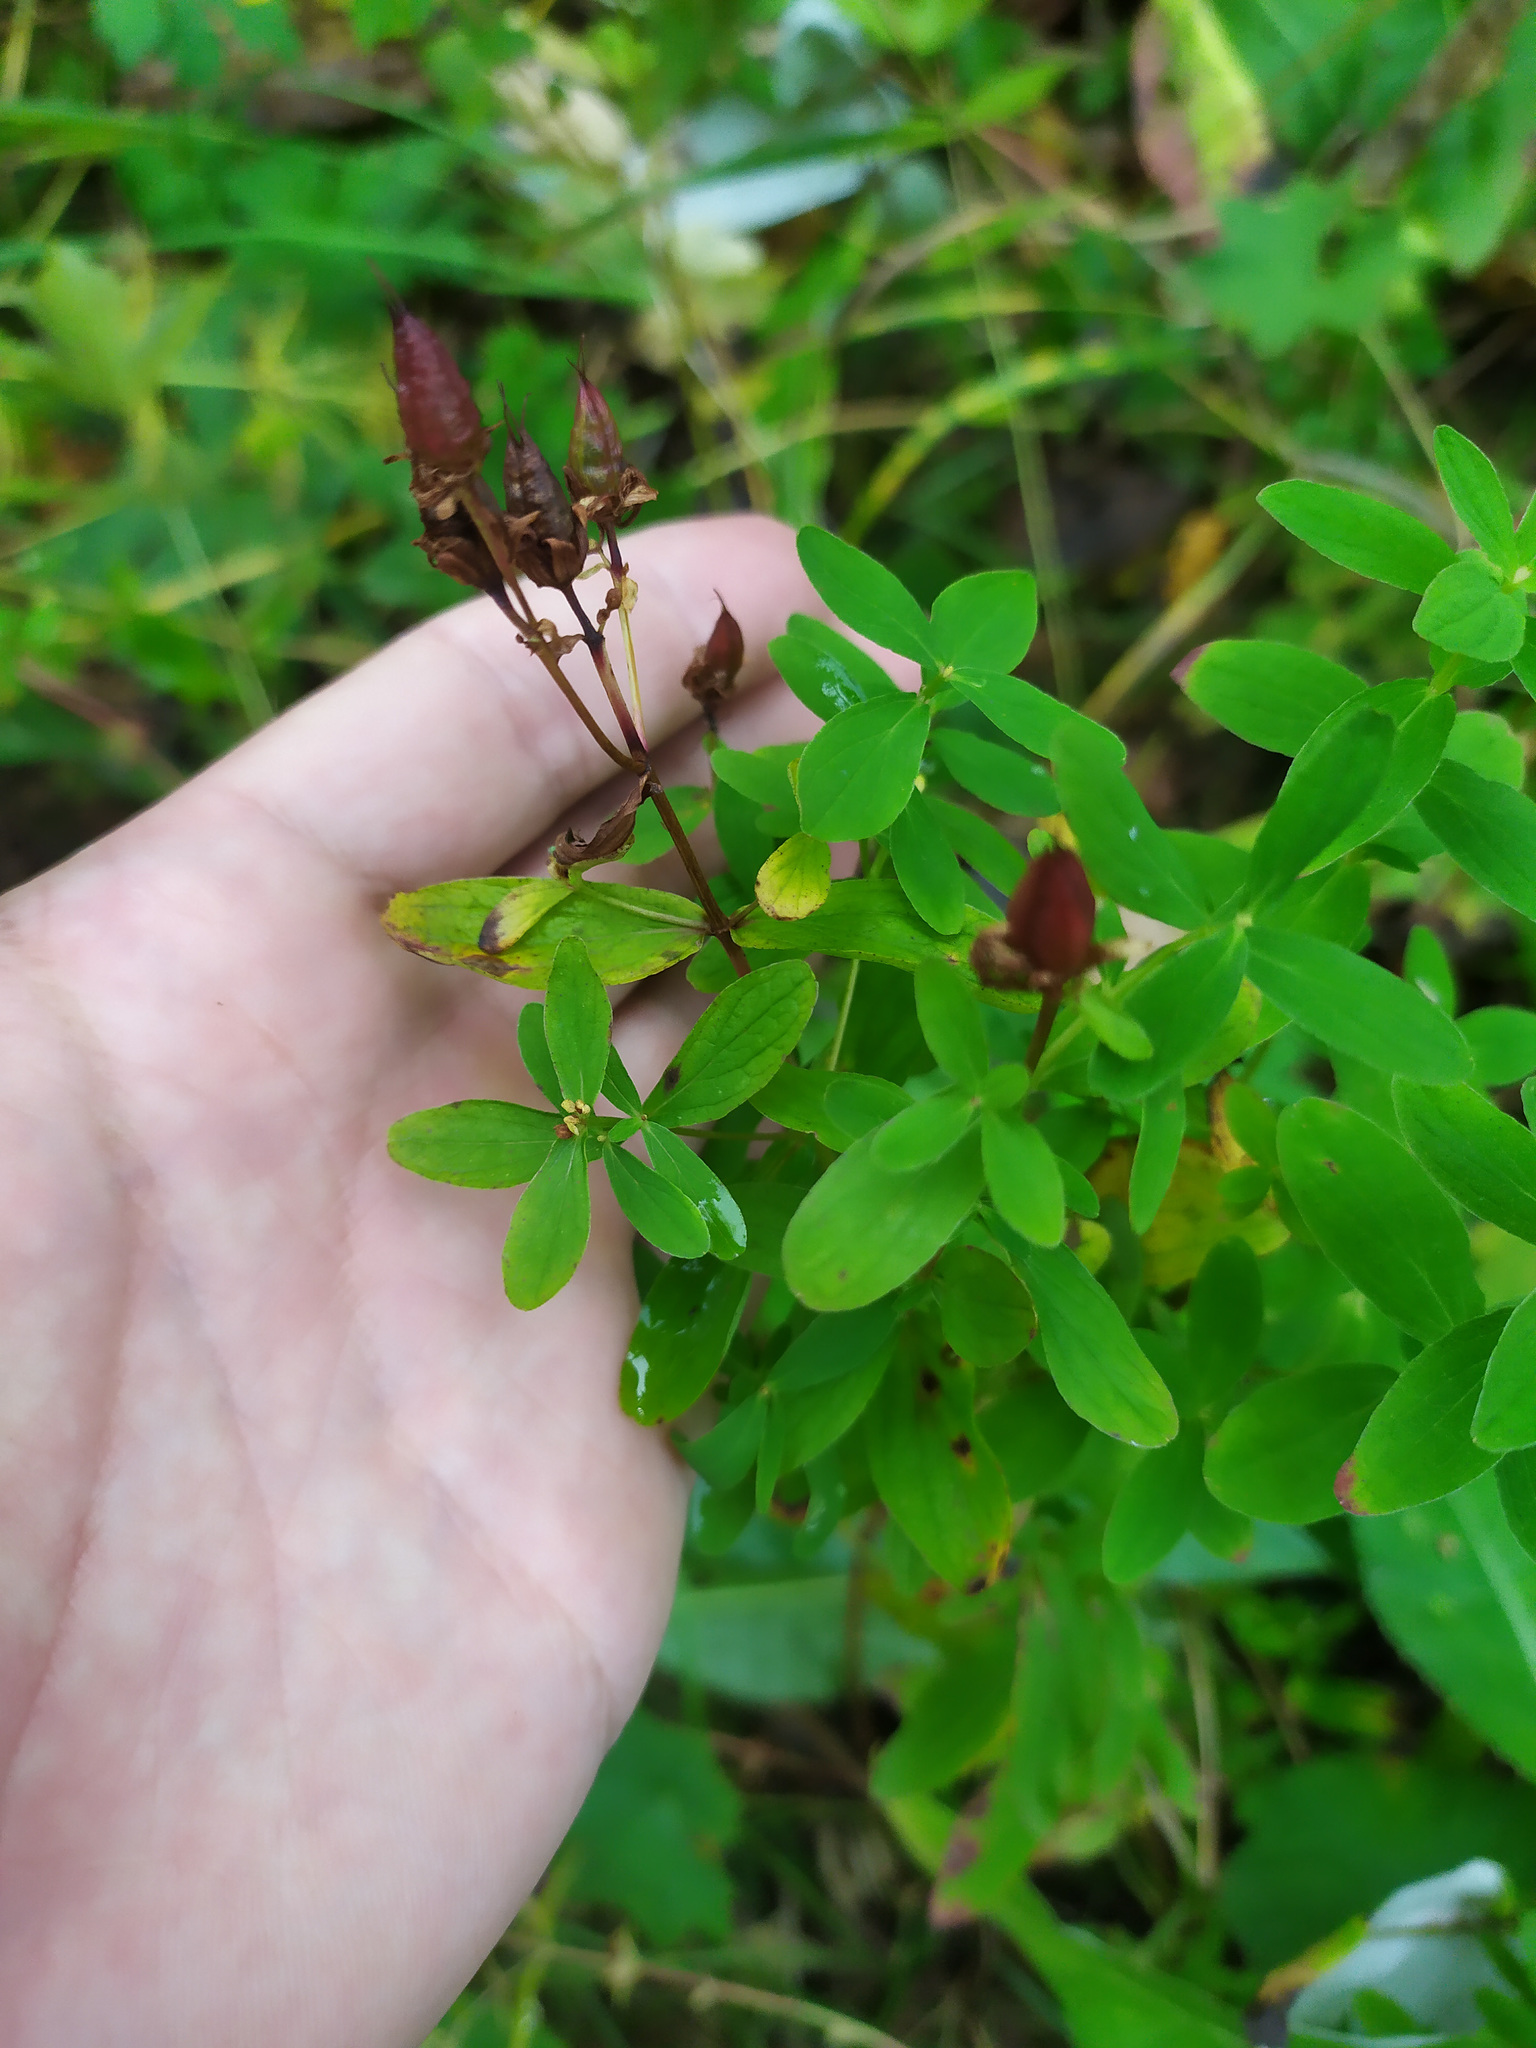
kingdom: Plantae
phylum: Tracheophyta
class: Magnoliopsida
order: Malpighiales
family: Hypericaceae
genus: Hypericum
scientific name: Hypericum perforatum
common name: Common st. johnswort
